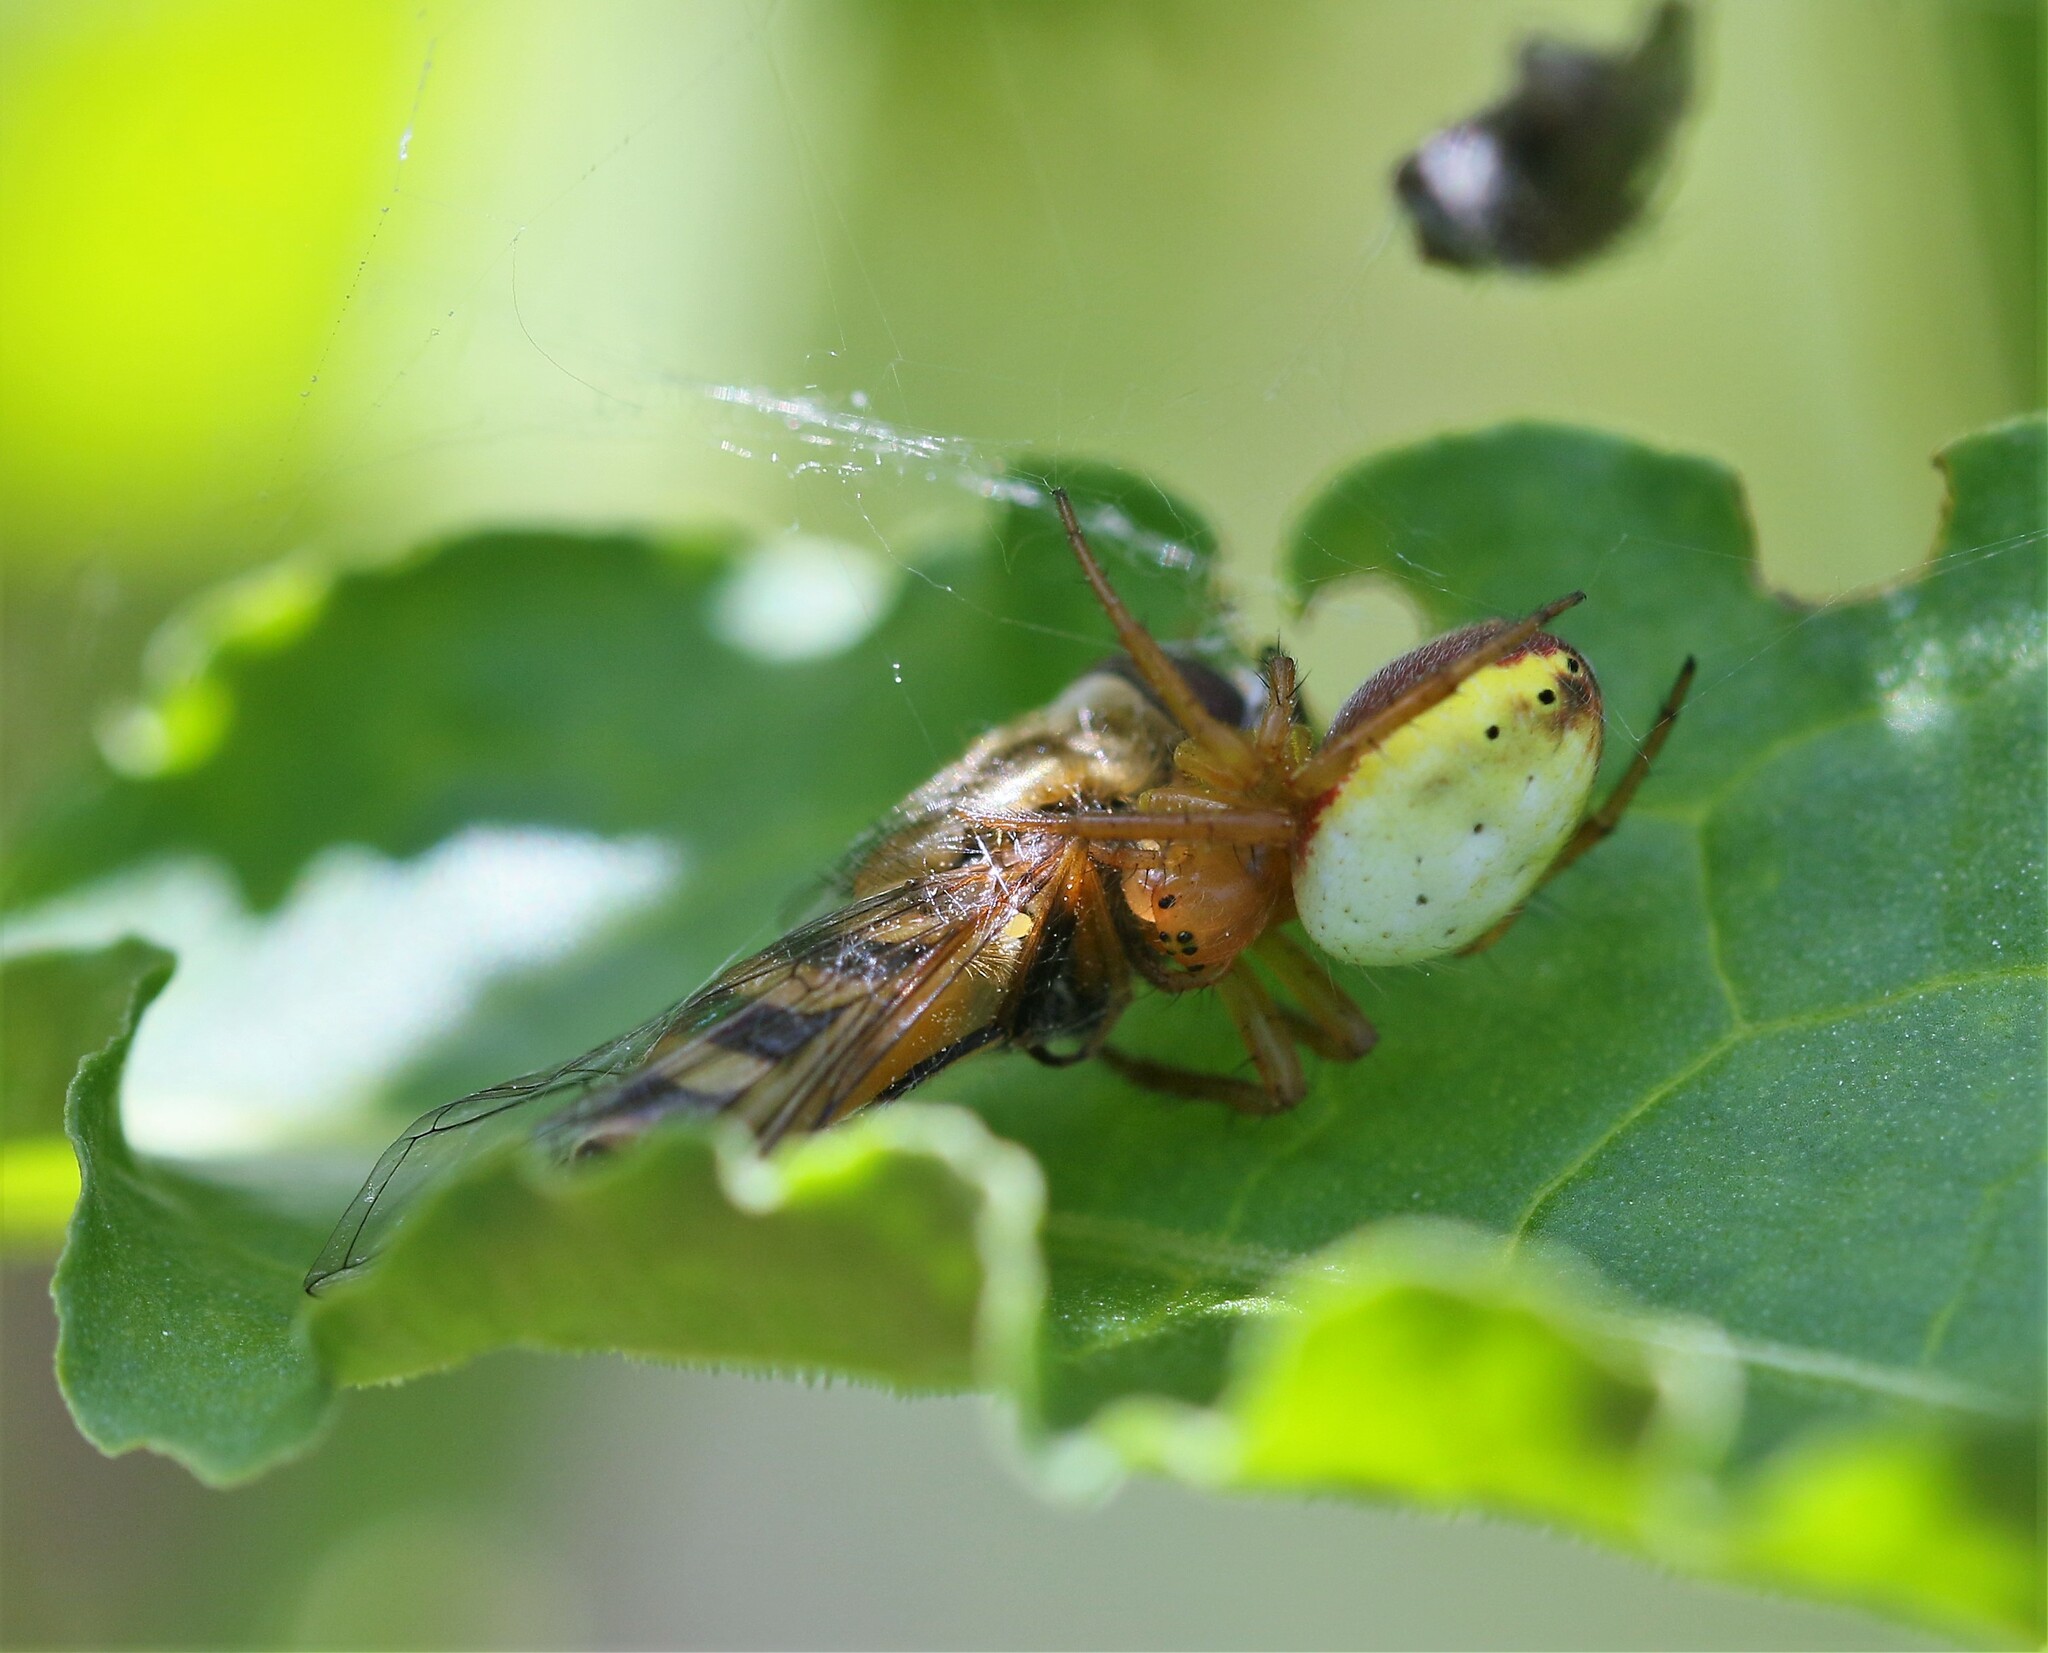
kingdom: Animalia
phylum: Arthropoda
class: Arachnida
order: Araneae
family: Araneidae
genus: Araniella
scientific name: Araniella displicata
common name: Sixspotted orb weaver
